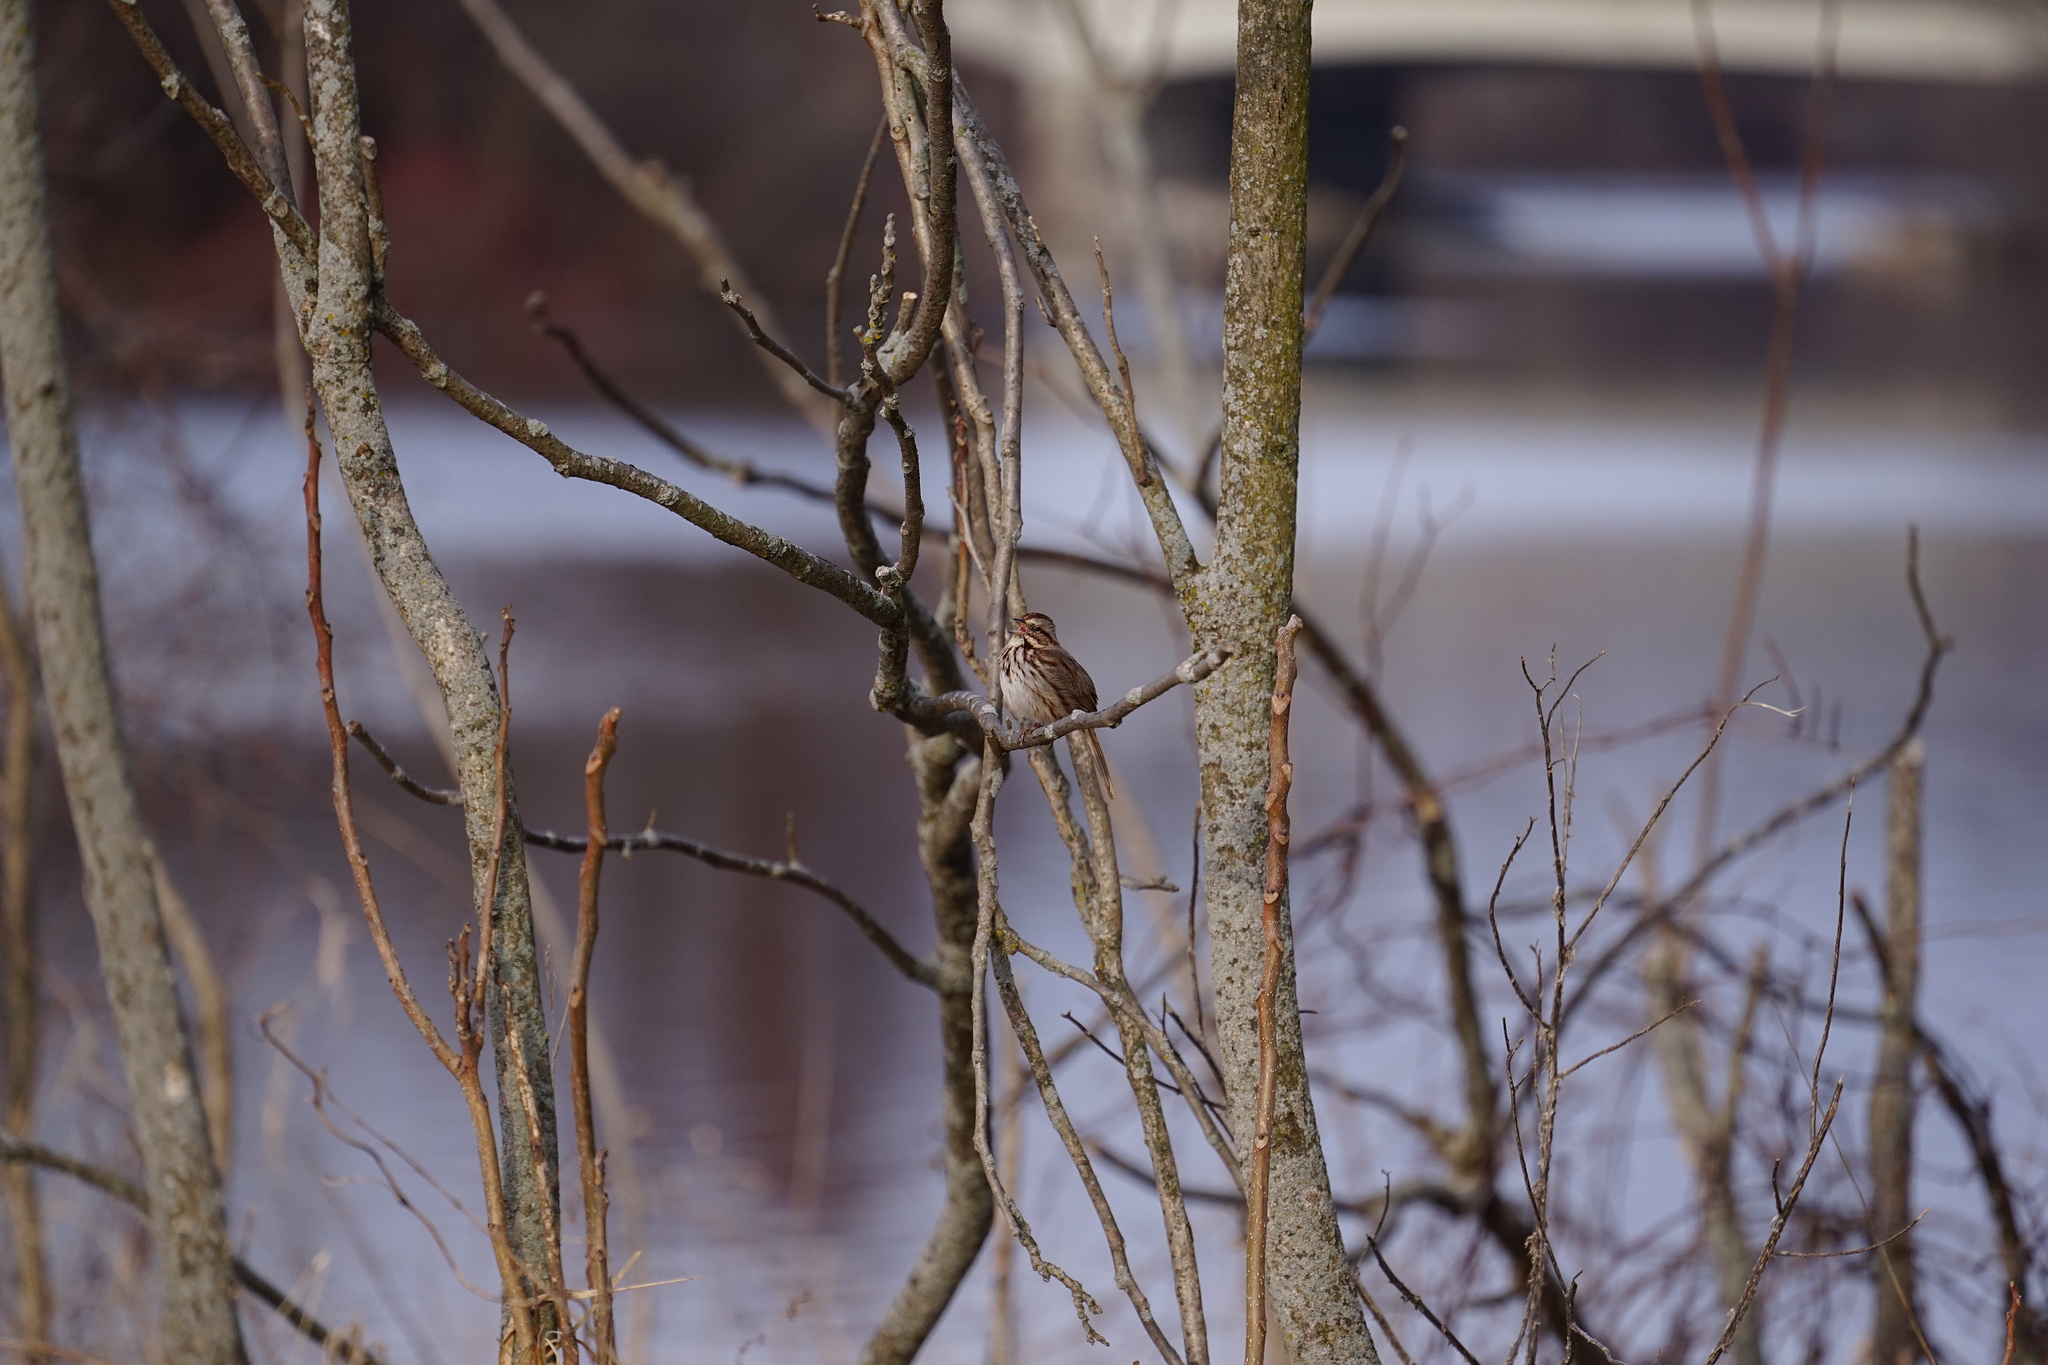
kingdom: Animalia
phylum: Chordata
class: Aves
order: Passeriformes
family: Passerellidae
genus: Melospiza
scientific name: Melospiza melodia
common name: Song sparrow
